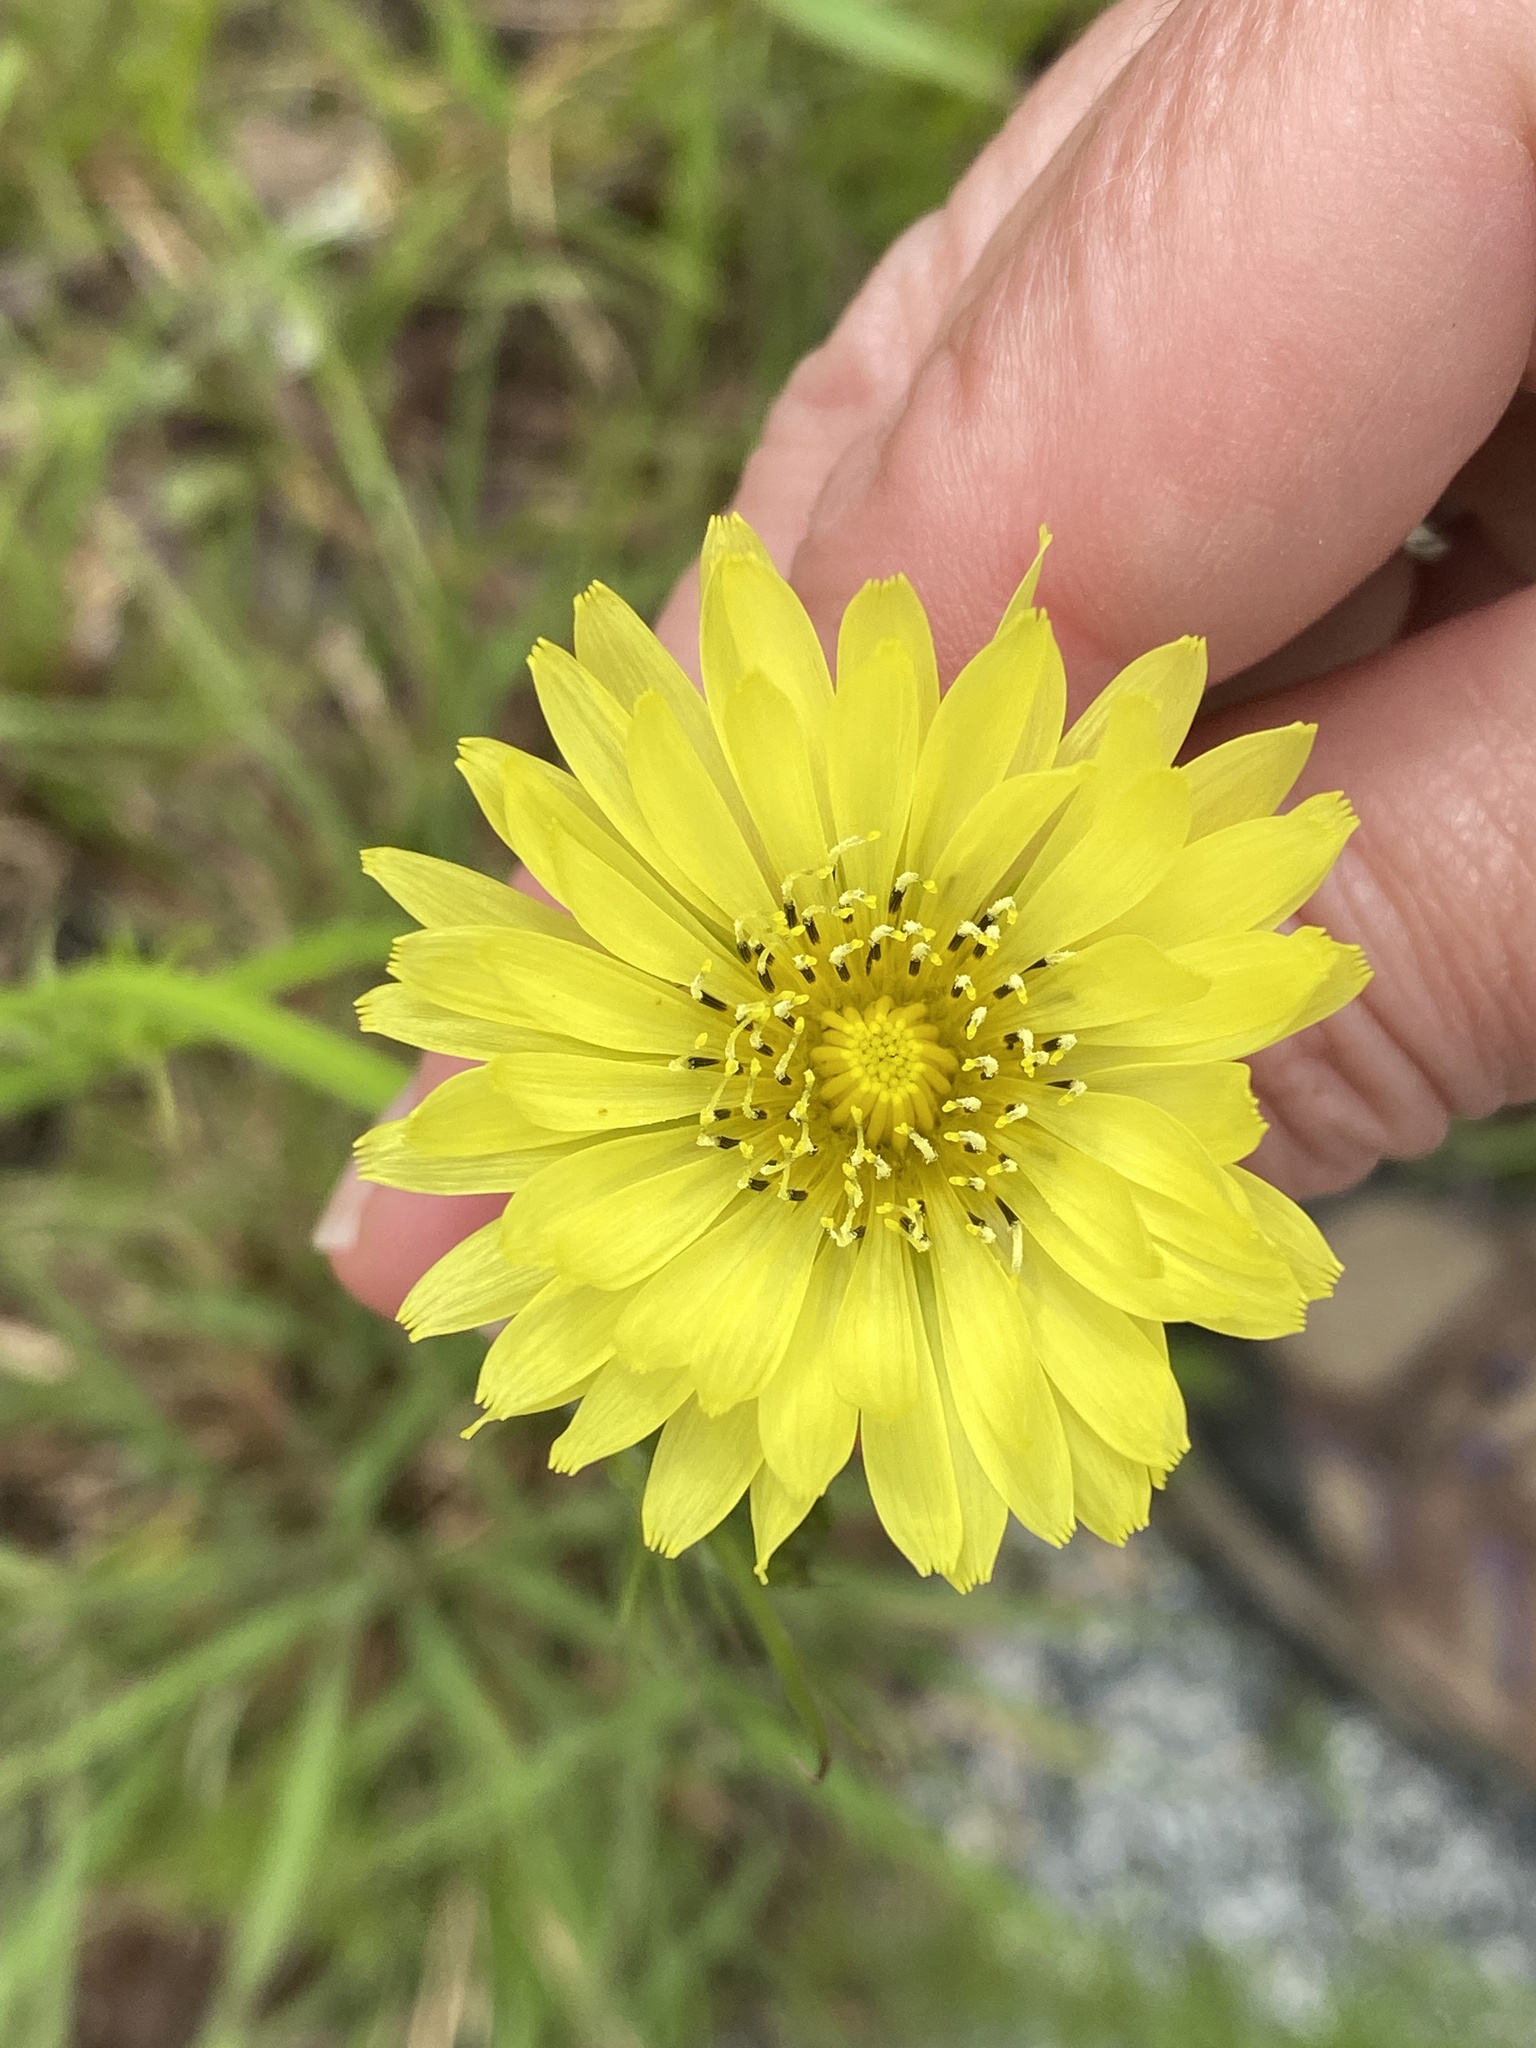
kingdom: Plantae
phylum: Tracheophyta
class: Magnoliopsida
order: Asterales
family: Asteraceae
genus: Pyrrhopappus
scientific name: Pyrrhopappus carolinianus
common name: Carolina desert-chicory
